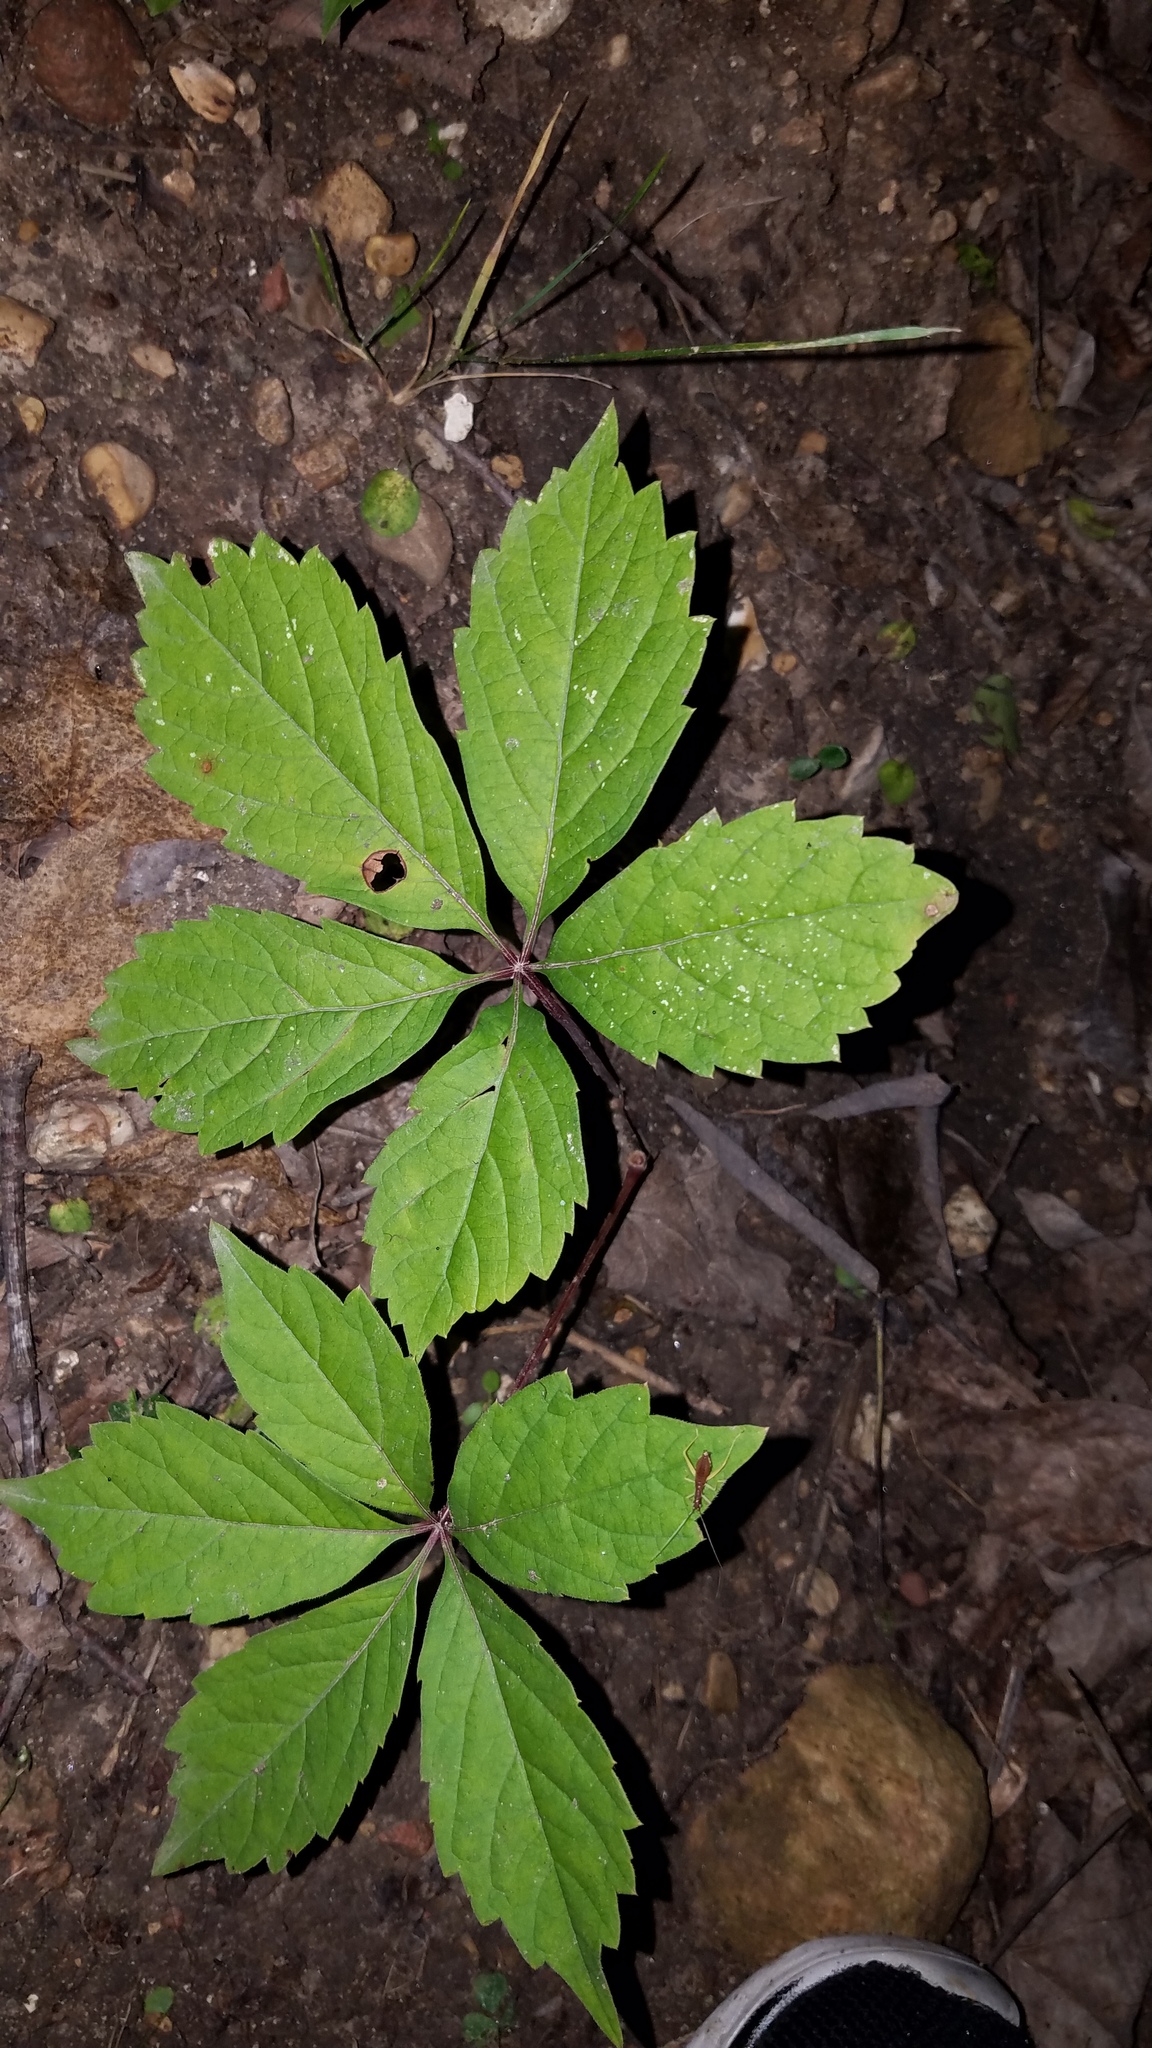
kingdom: Plantae
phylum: Tracheophyta
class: Magnoliopsida
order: Vitales
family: Vitaceae
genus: Parthenocissus
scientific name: Parthenocissus quinquefolia
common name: Virginia-creeper
